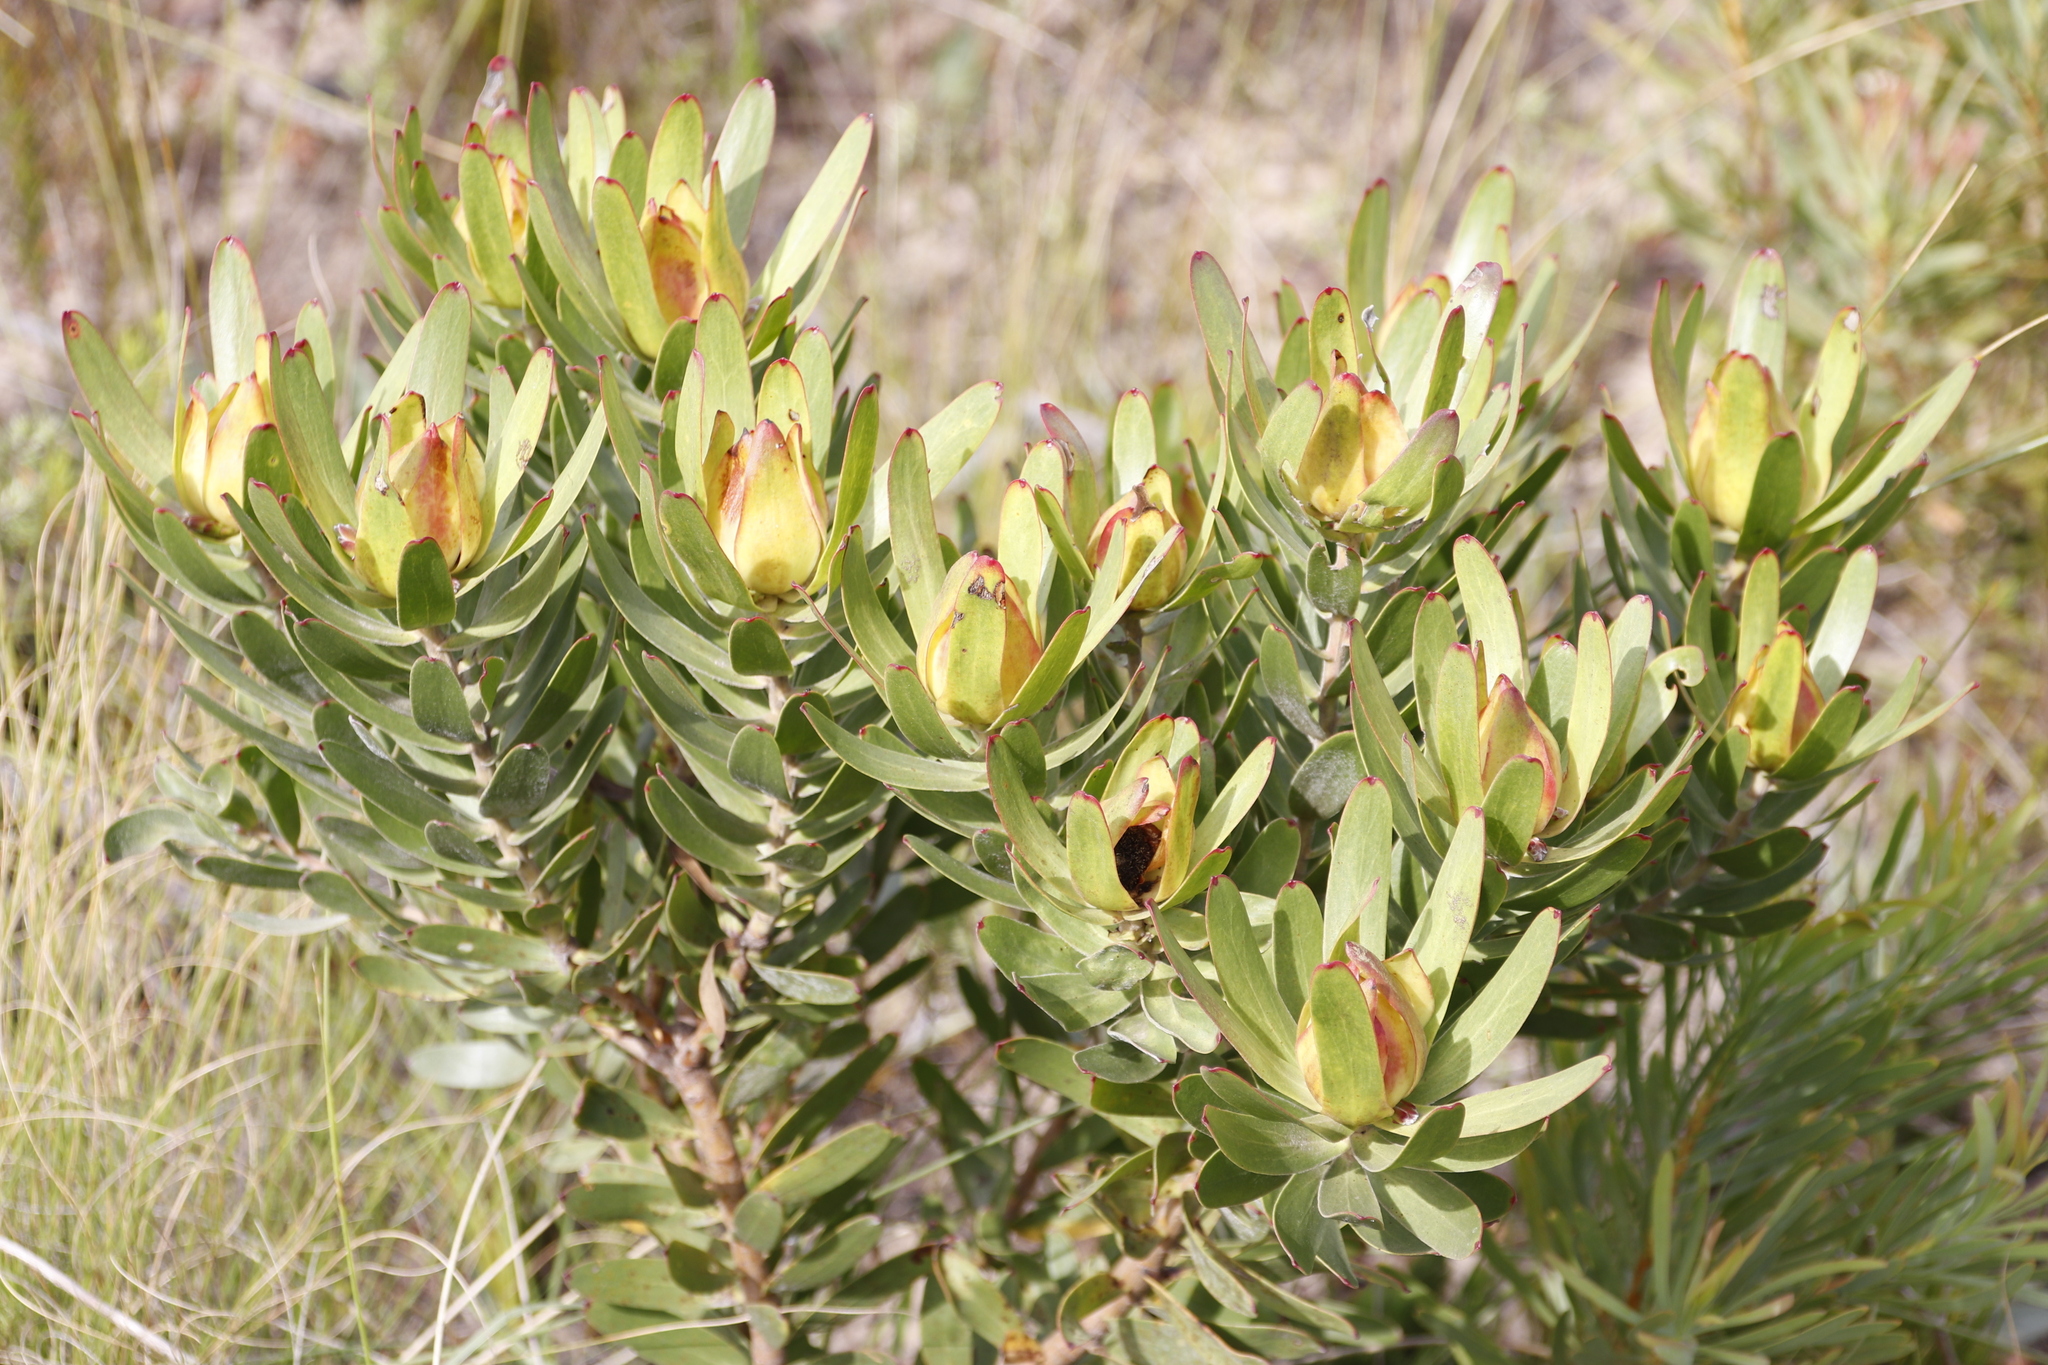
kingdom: Plantae
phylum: Tracheophyta
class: Magnoliopsida
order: Proteales
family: Proteaceae
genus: Leucadendron
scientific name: Leucadendron laureolum
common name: Golden sunshinebush
